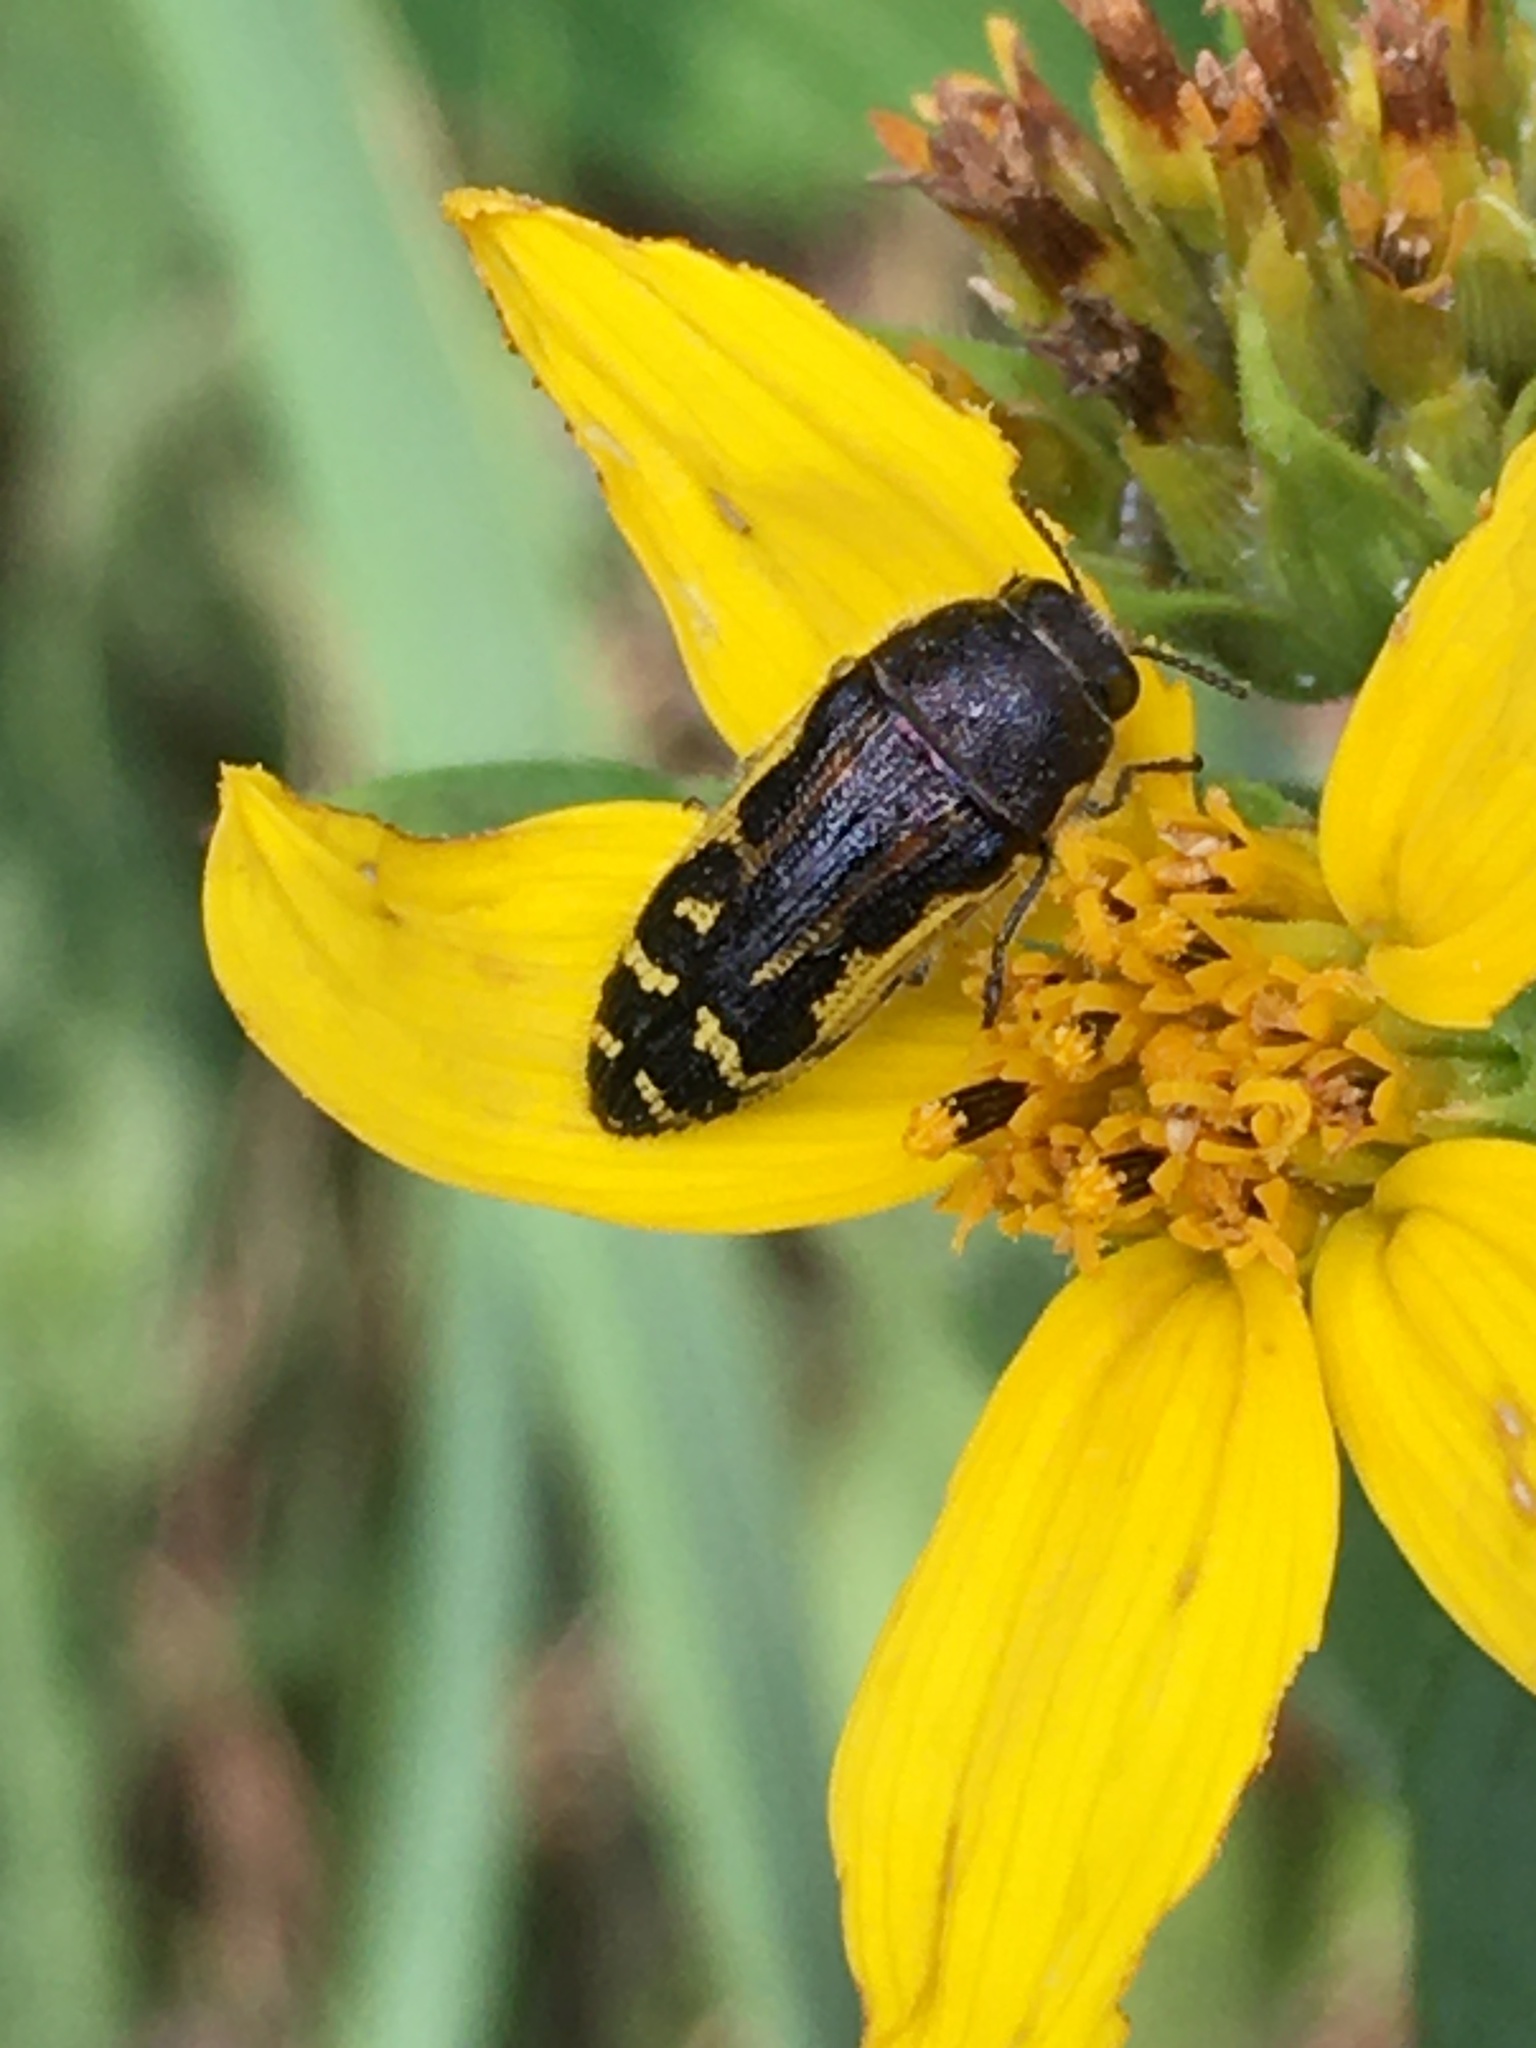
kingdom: Animalia
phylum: Arthropoda
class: Insecta
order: Coleoptera
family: Buprestidae
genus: Acmaeodera
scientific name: Acmaeodera pulchella
